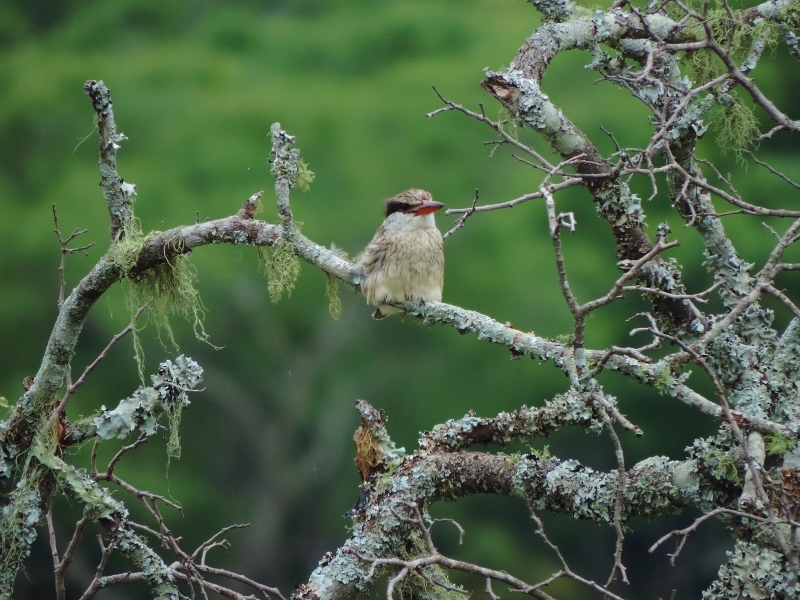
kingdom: Animalia
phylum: Chordata
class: Aves
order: Coraciiformes
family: Alcedinidae
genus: Halcyon
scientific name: Halcyon chelicuti
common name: Striped kingfisher
